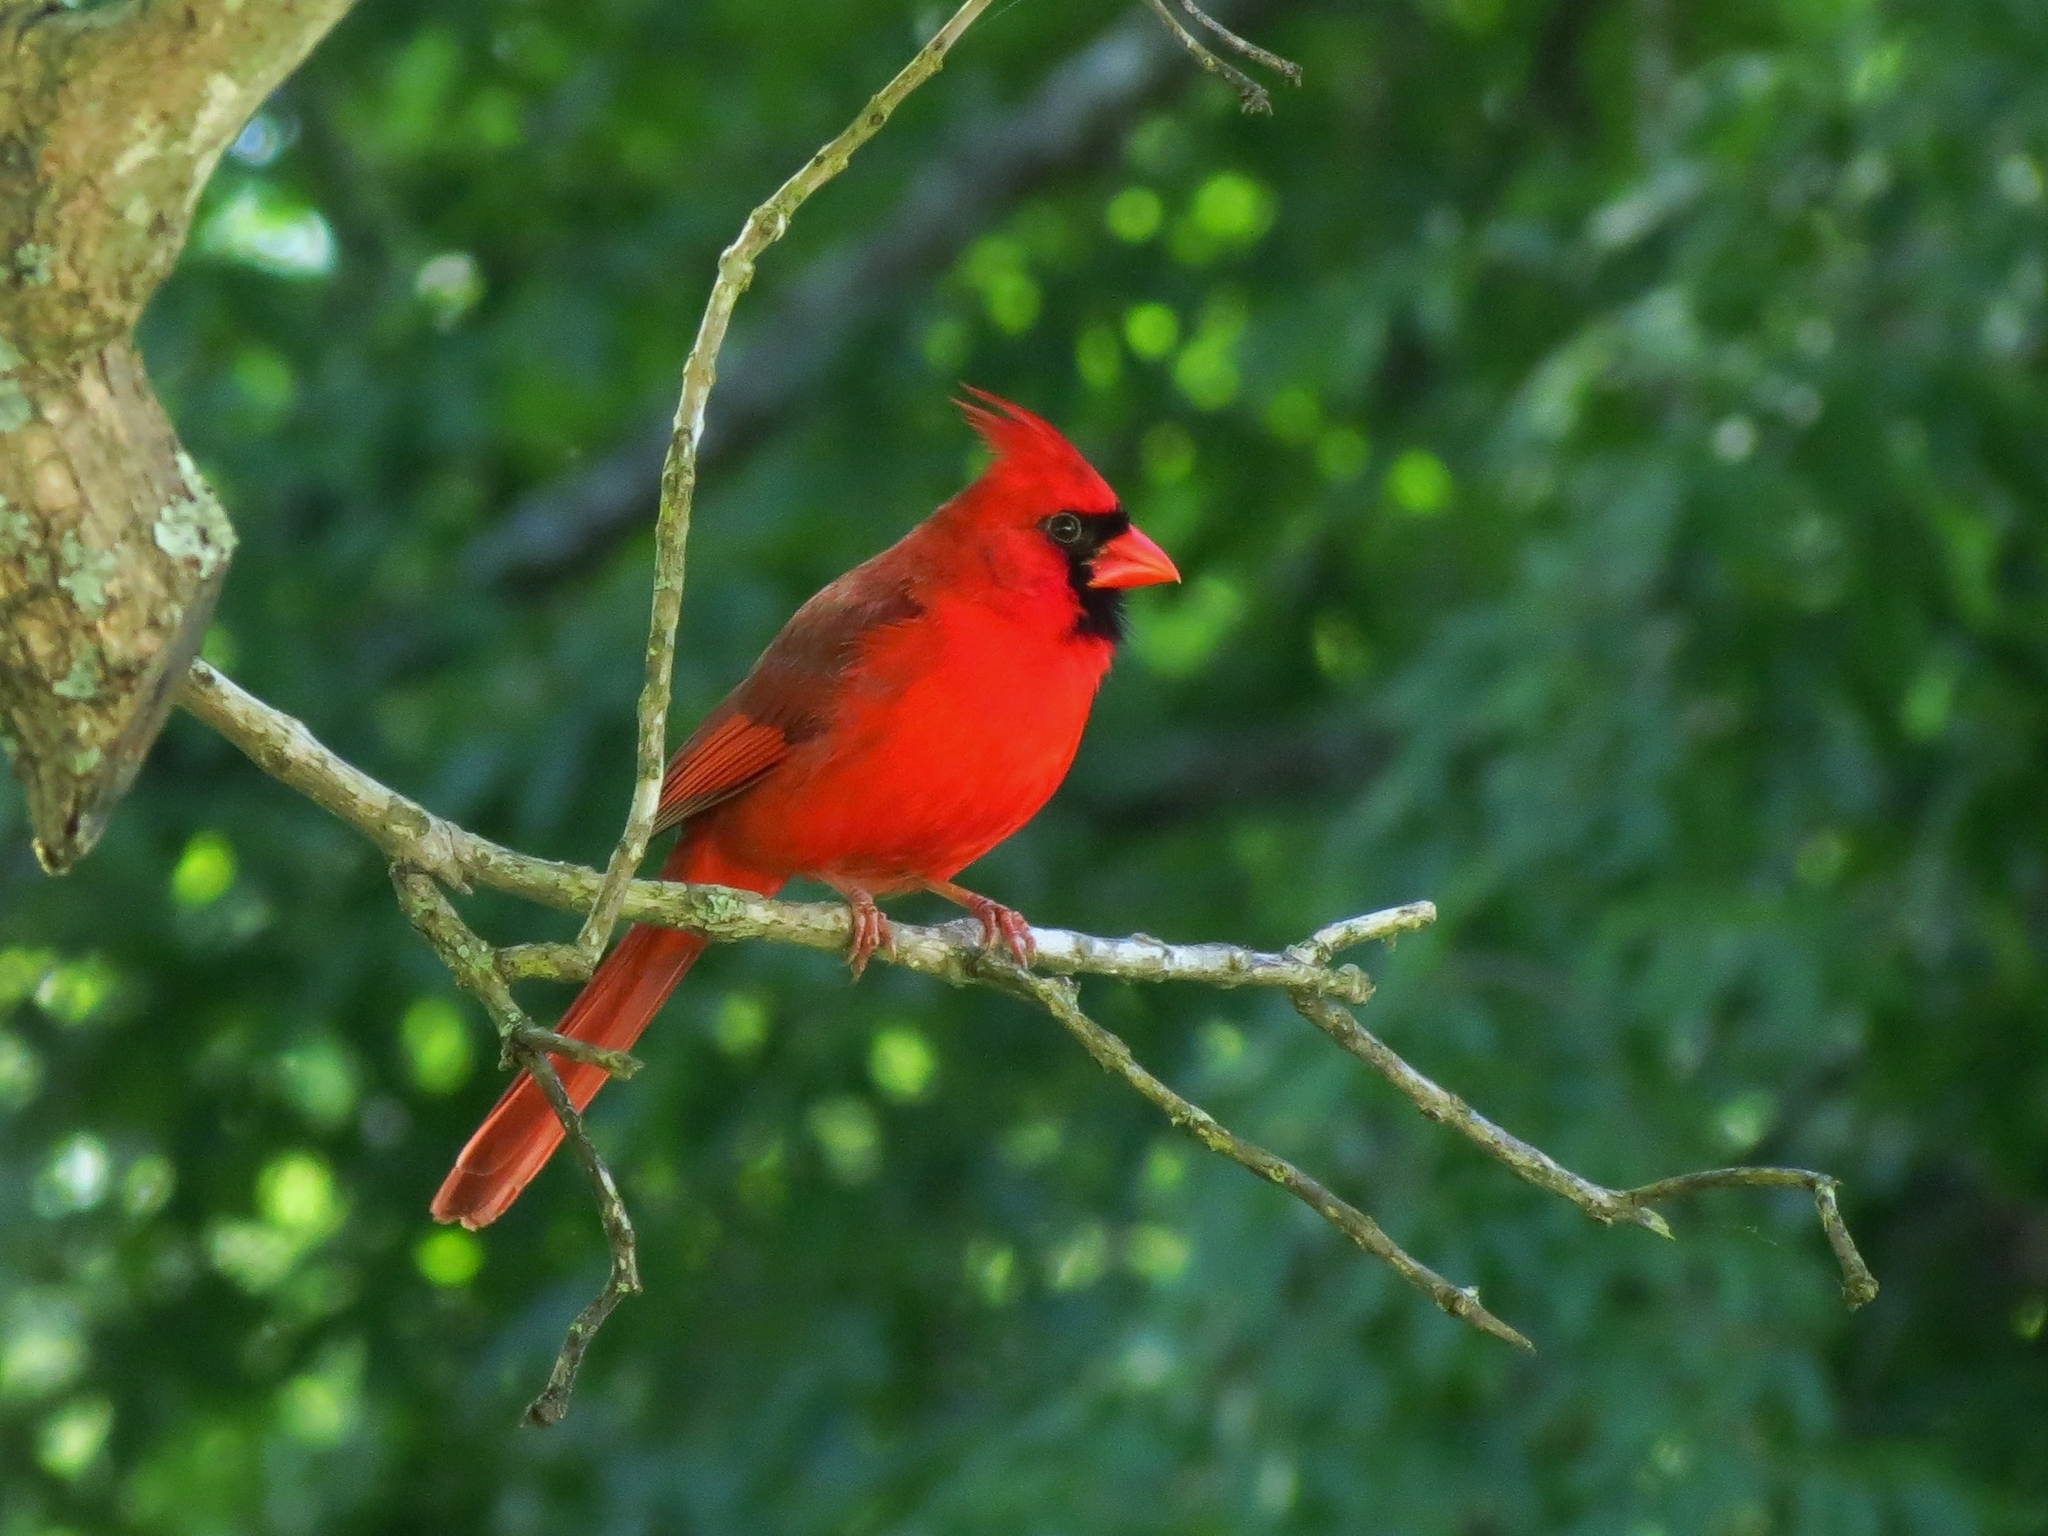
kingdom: Animalia
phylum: Chordata
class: Aves
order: Passeriformes
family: Cardinalidae
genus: Cardinalis
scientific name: Cardinalis cardinalis
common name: Northern cardinal
